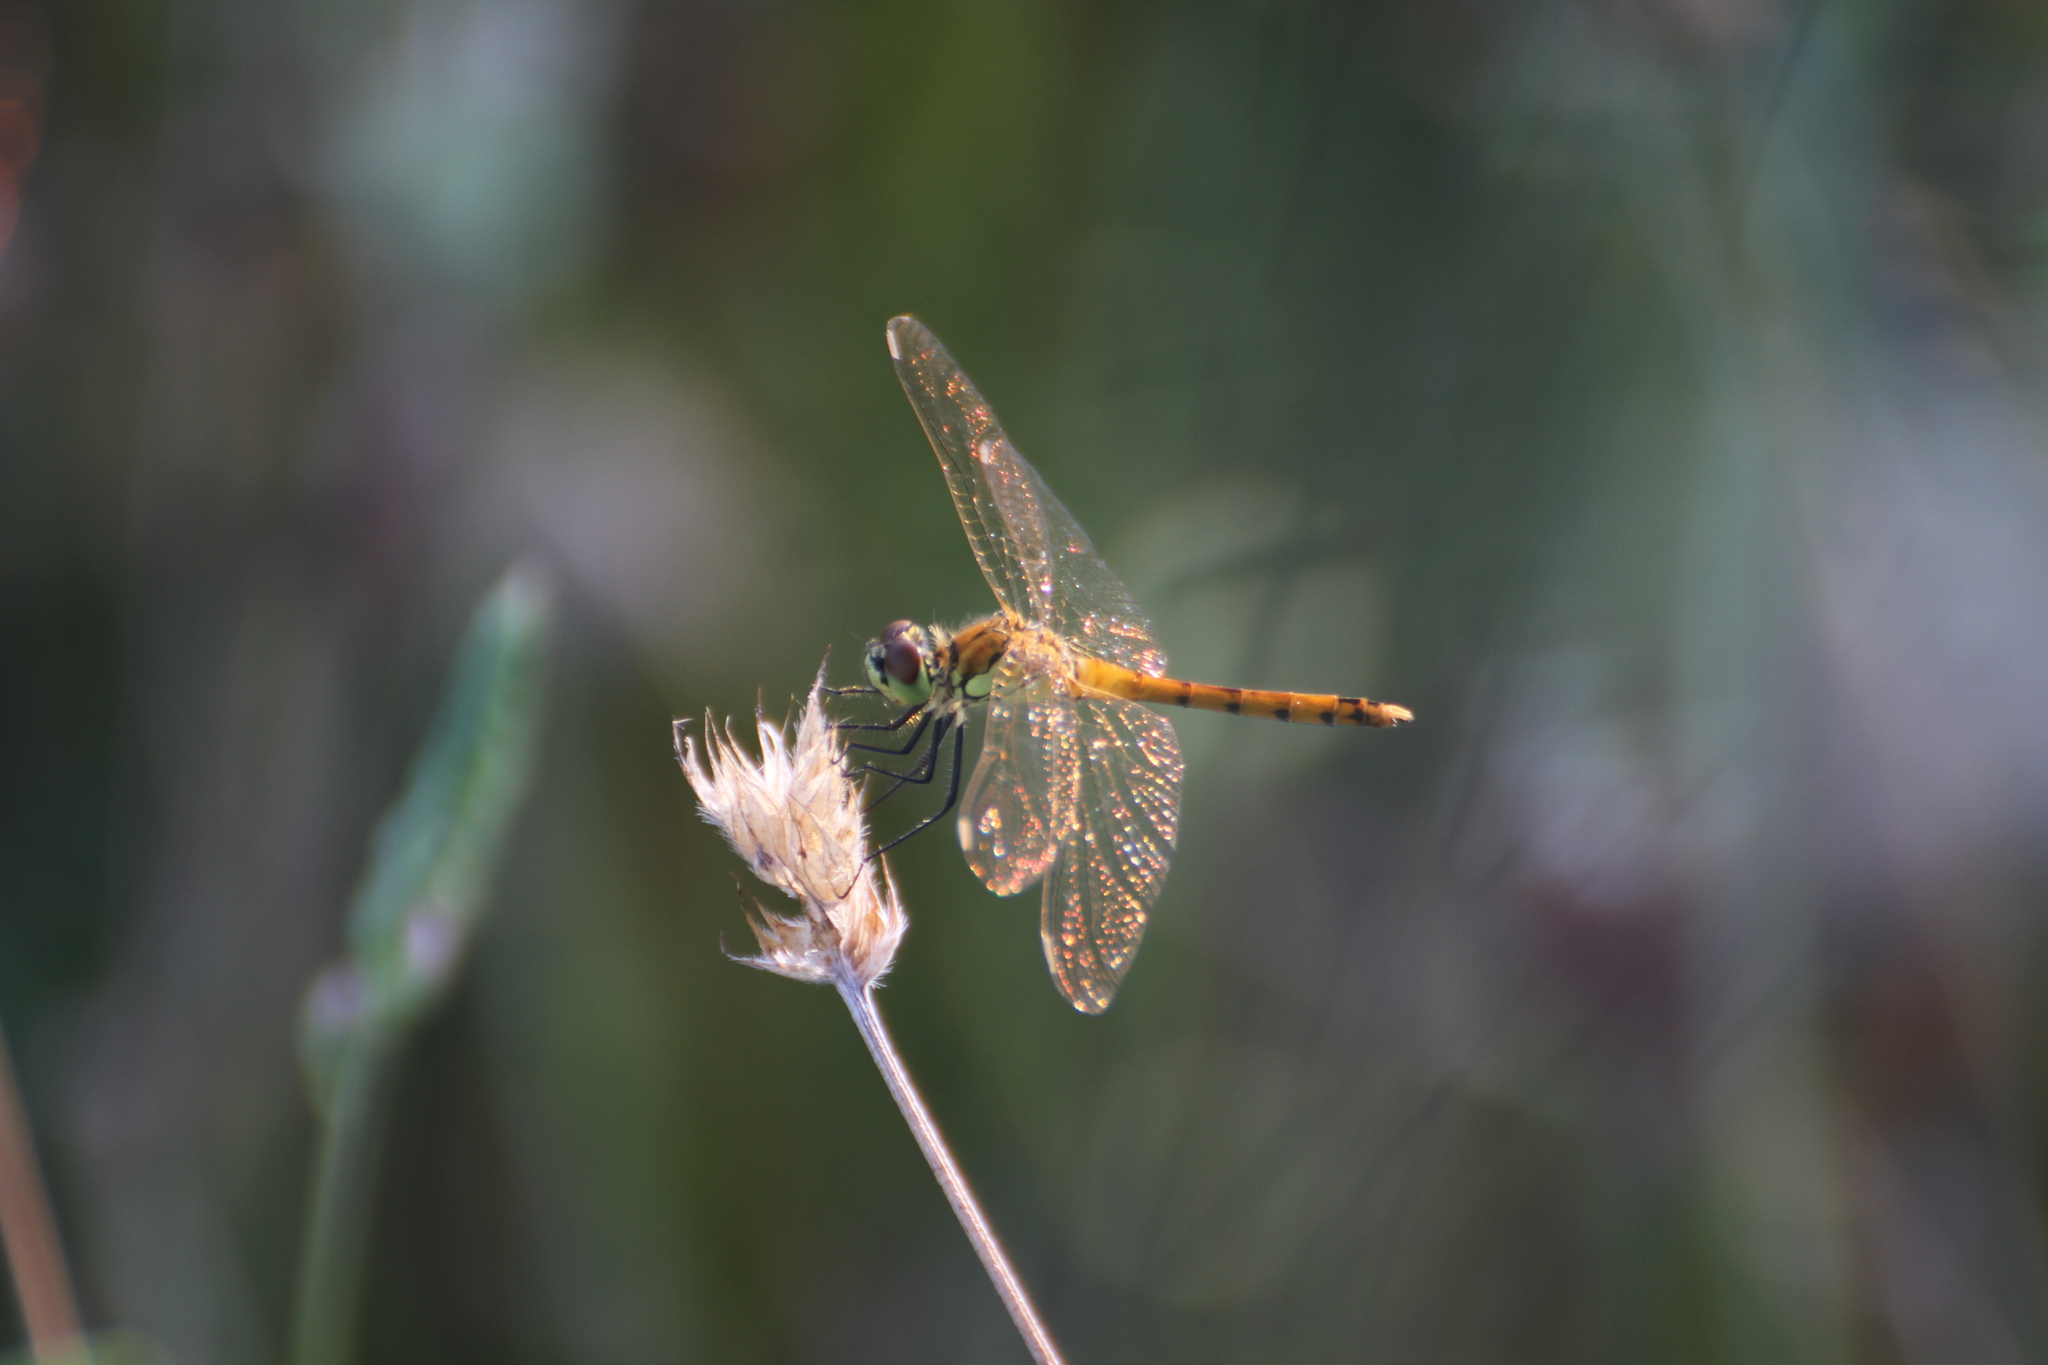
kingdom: Animalia
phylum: Arthropoda
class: Insecta
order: Odonata
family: Libellulidae
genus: Sympetrum
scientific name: Sympetrum depressiusculum
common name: Spotted darter
